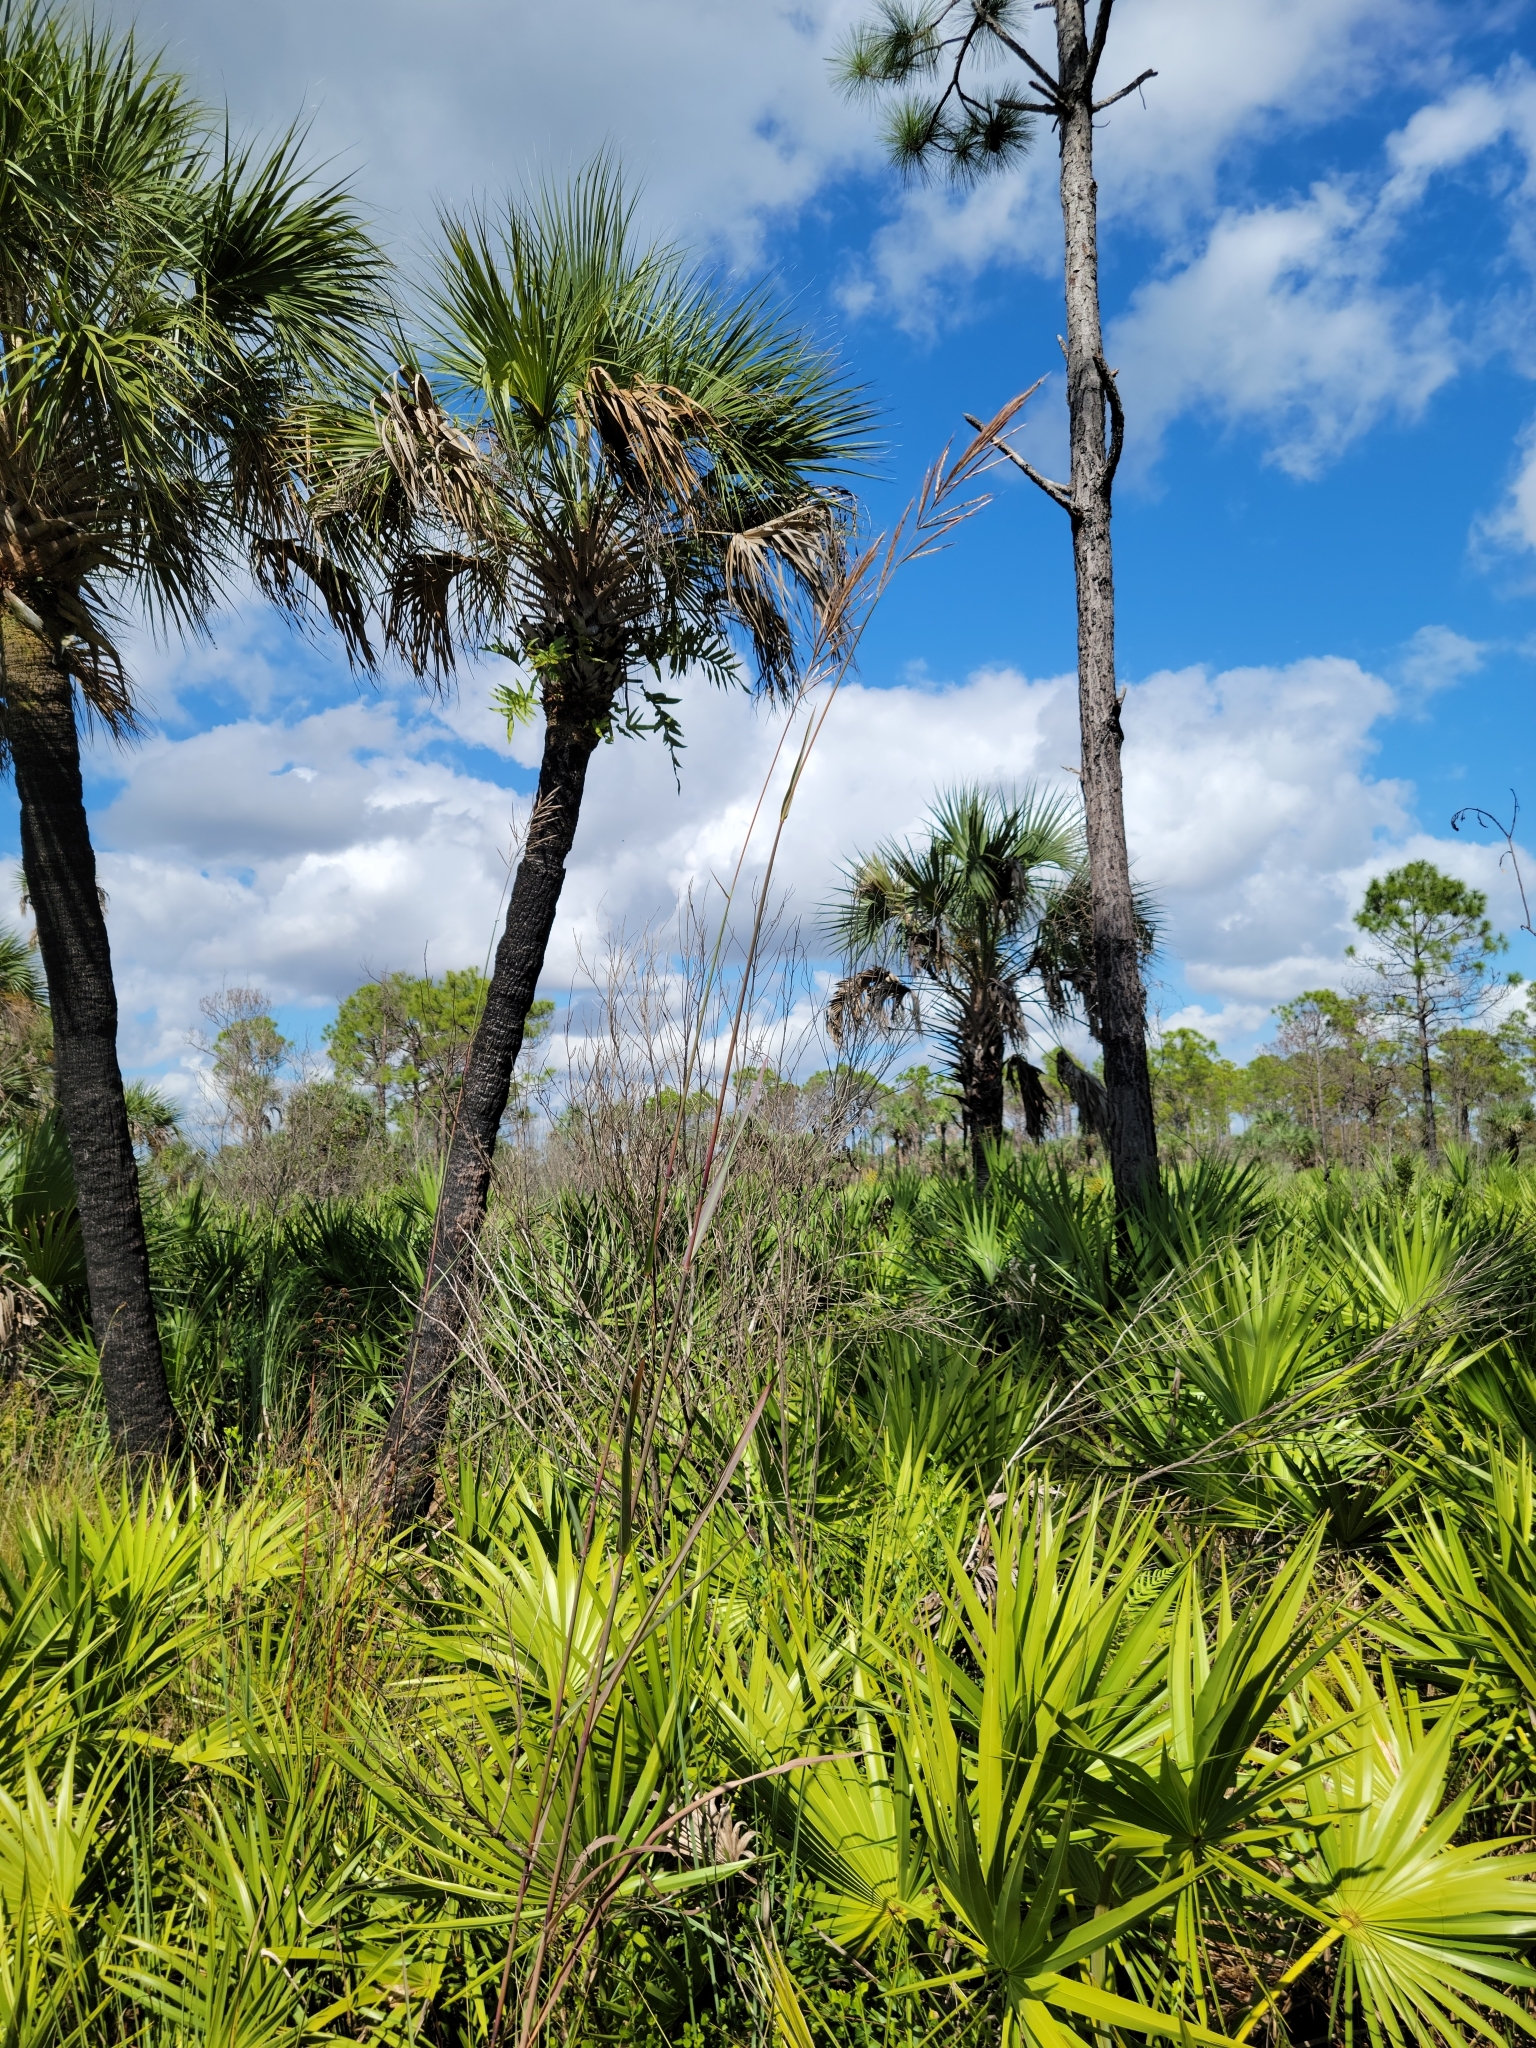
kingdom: Plantae
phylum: Tracheophyta
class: Liliopsida
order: Poales
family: Poaceae
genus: Erianthus
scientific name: Erianthus giganteus
